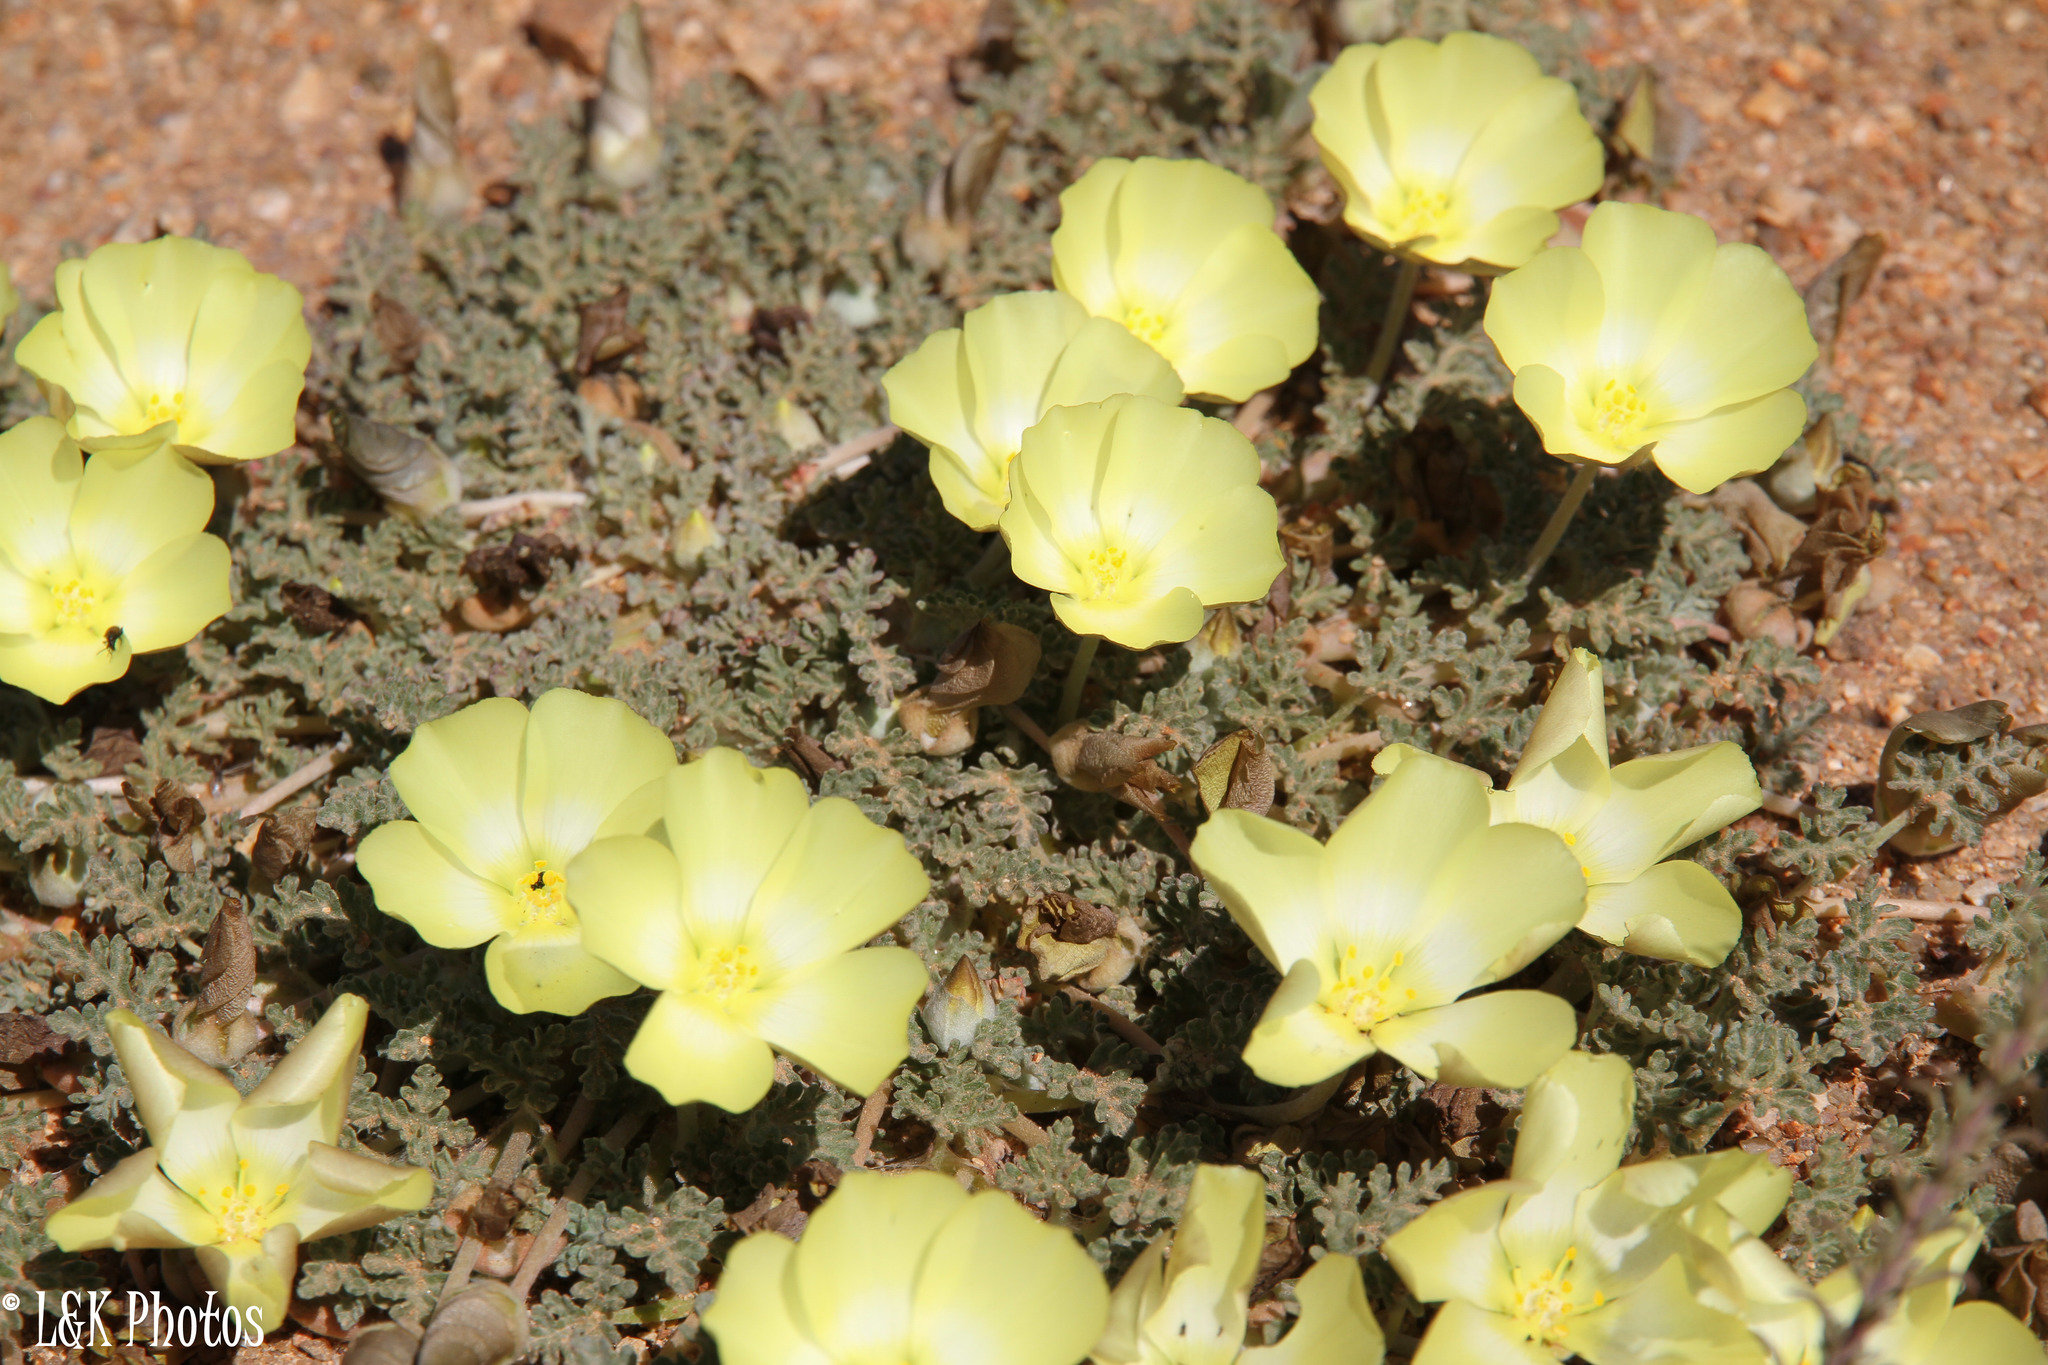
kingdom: Plantae
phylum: Tracheophyta
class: Magnoliopsida
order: Malvales
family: Neuradaceae
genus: Grielum
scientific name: Grielum humifusum
